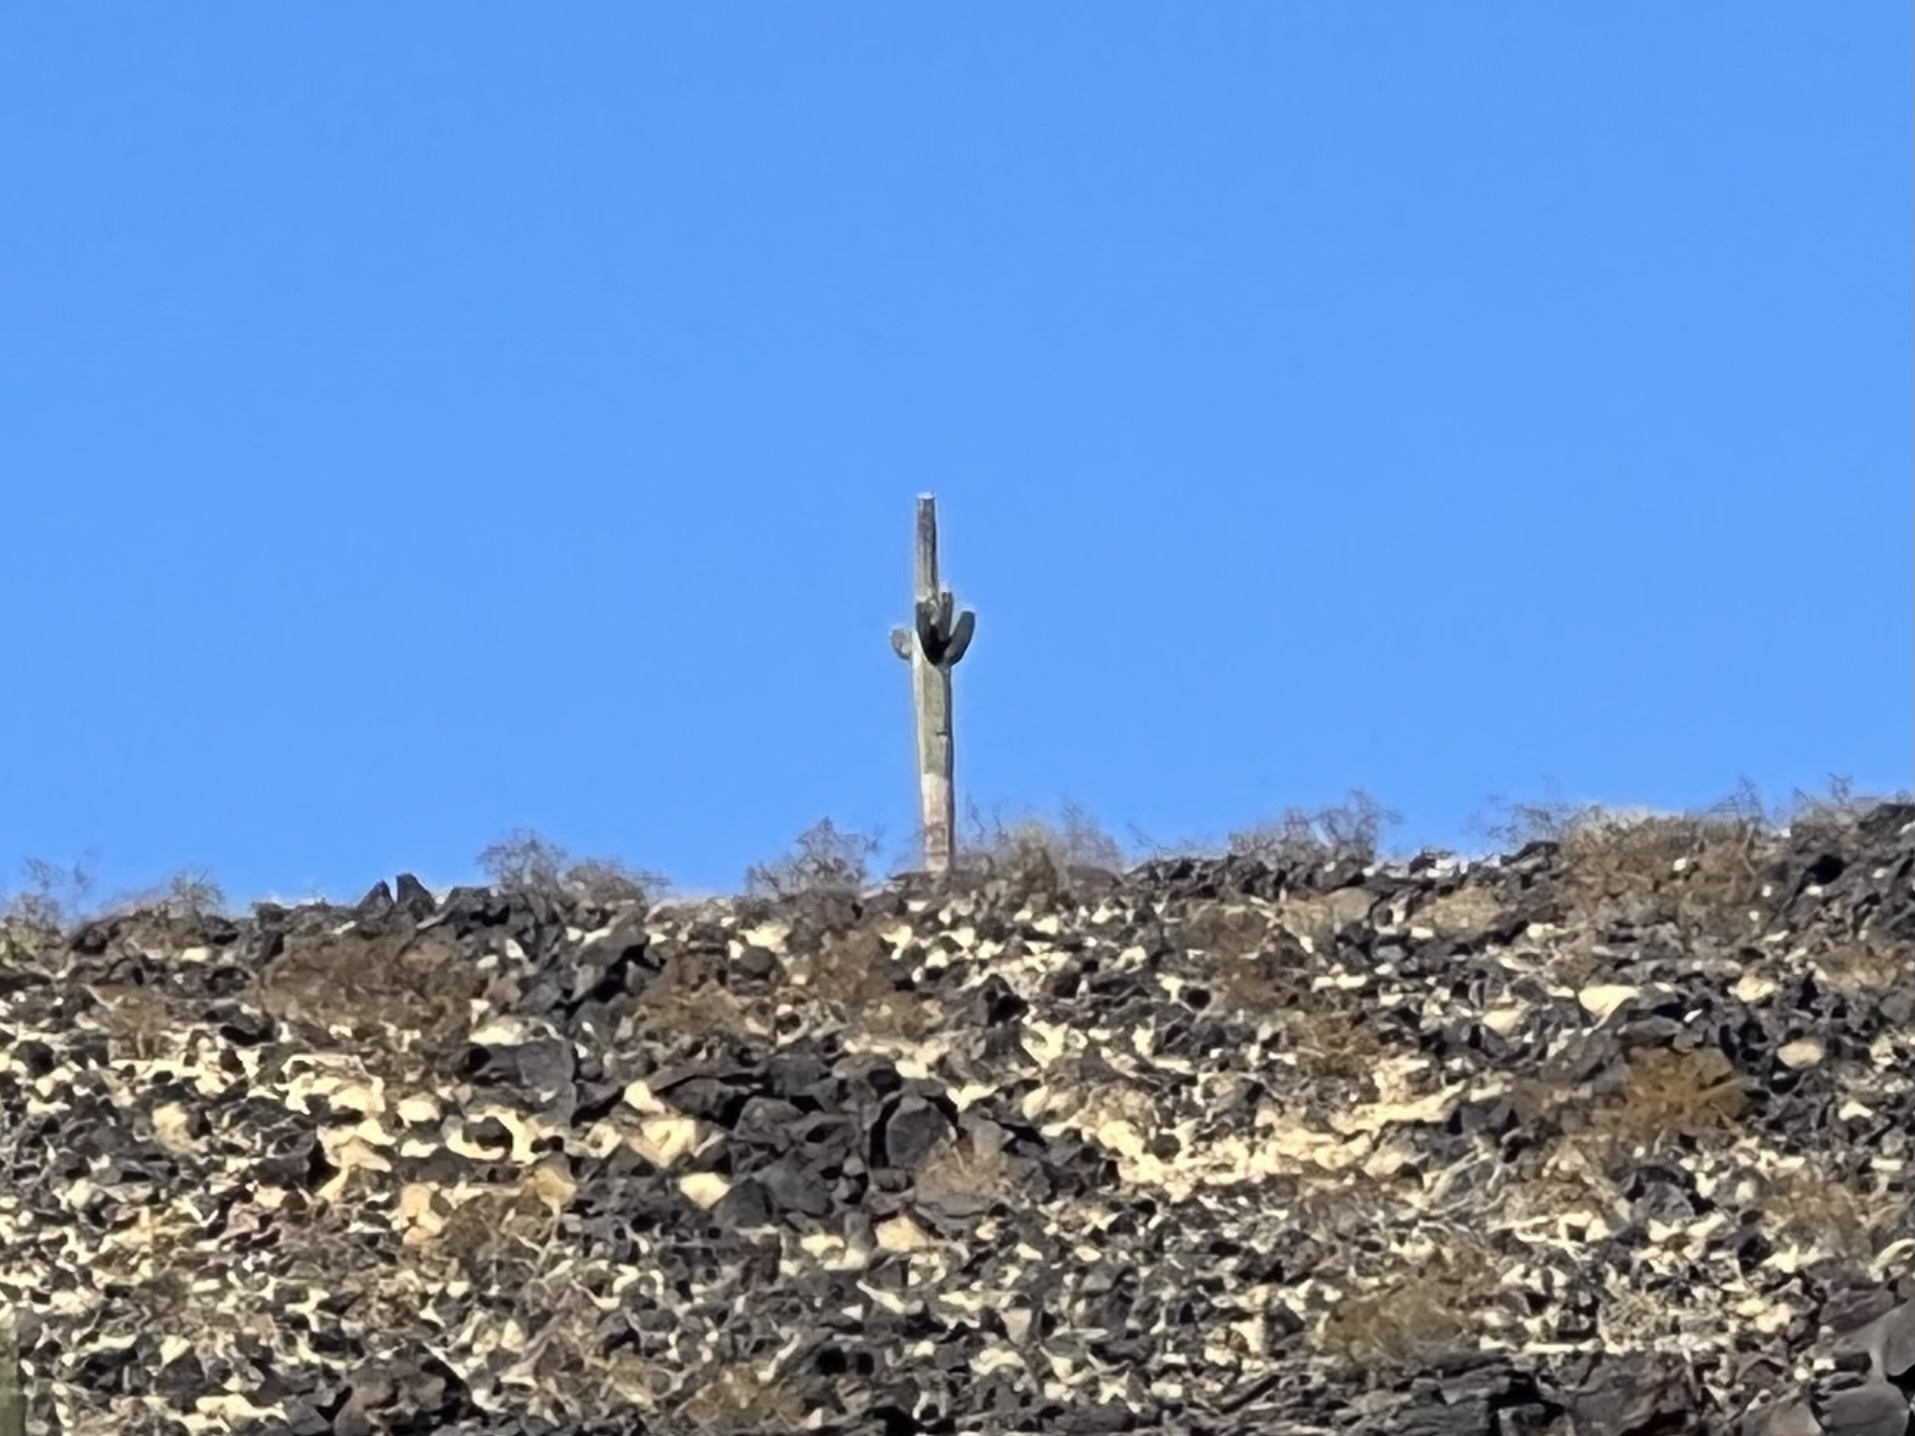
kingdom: Plantae
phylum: Tracheophyta
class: Magnoliopsida
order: Caryophyllales
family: Cactaceae
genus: Carnegiea
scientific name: Carnegiea gigantea
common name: Saguaro
